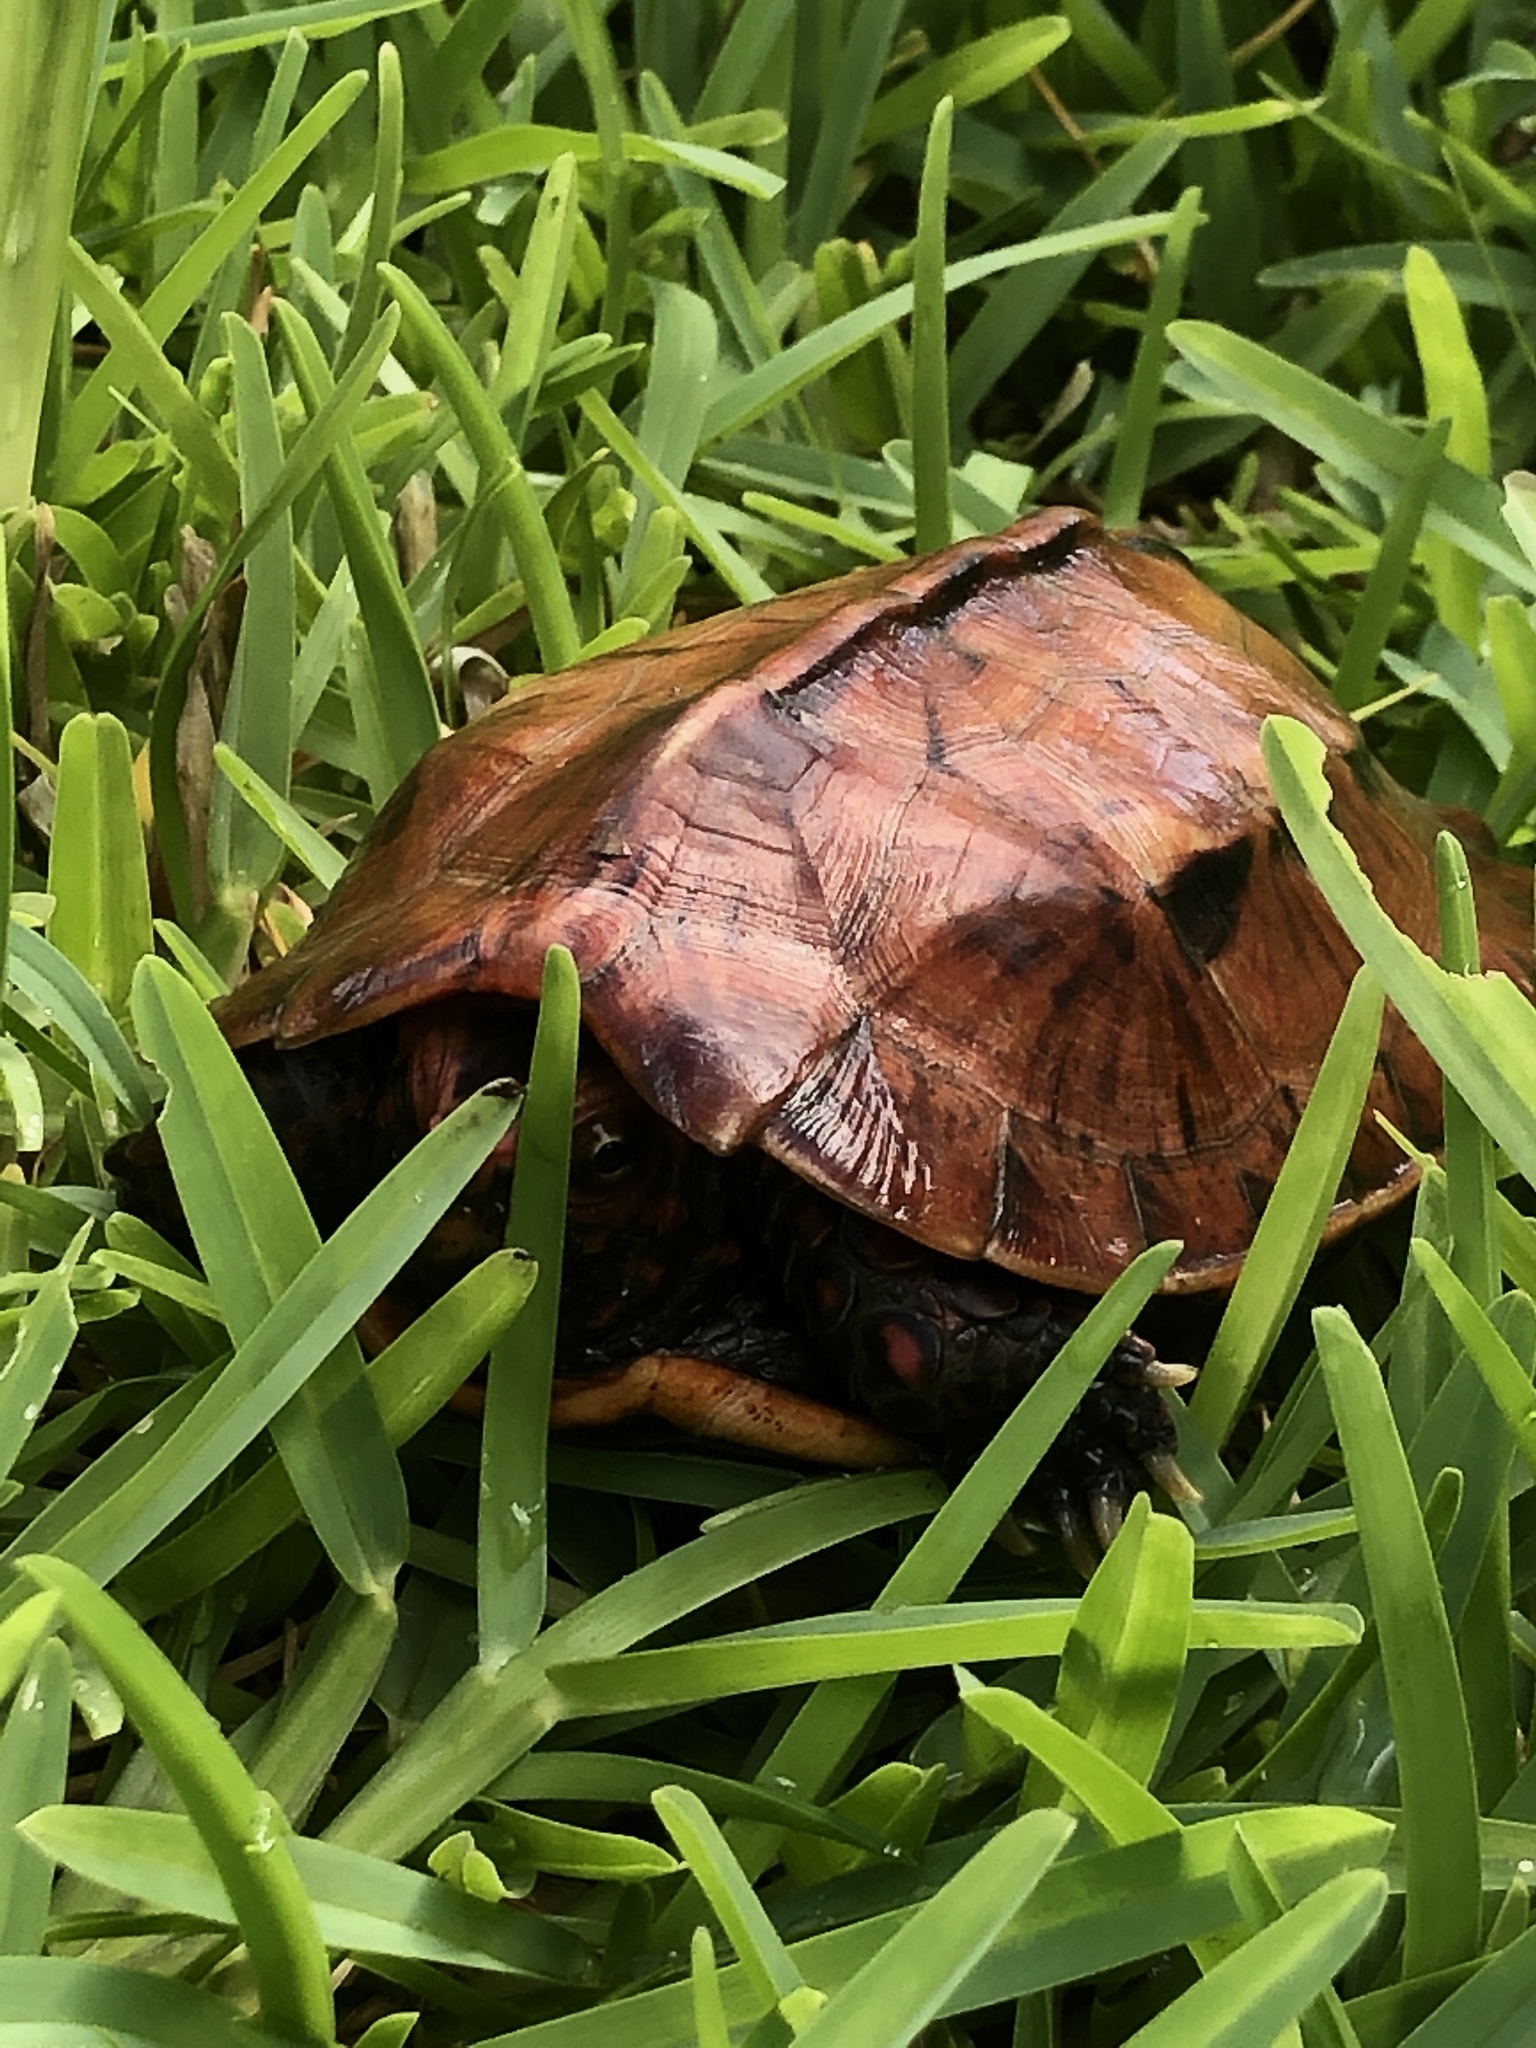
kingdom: Animalia
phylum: Chordata
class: Testudines
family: Geoemydidae
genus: Geoemyda
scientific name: Geoemyda japonica
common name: Okinawa black-breasted leaf turtle
